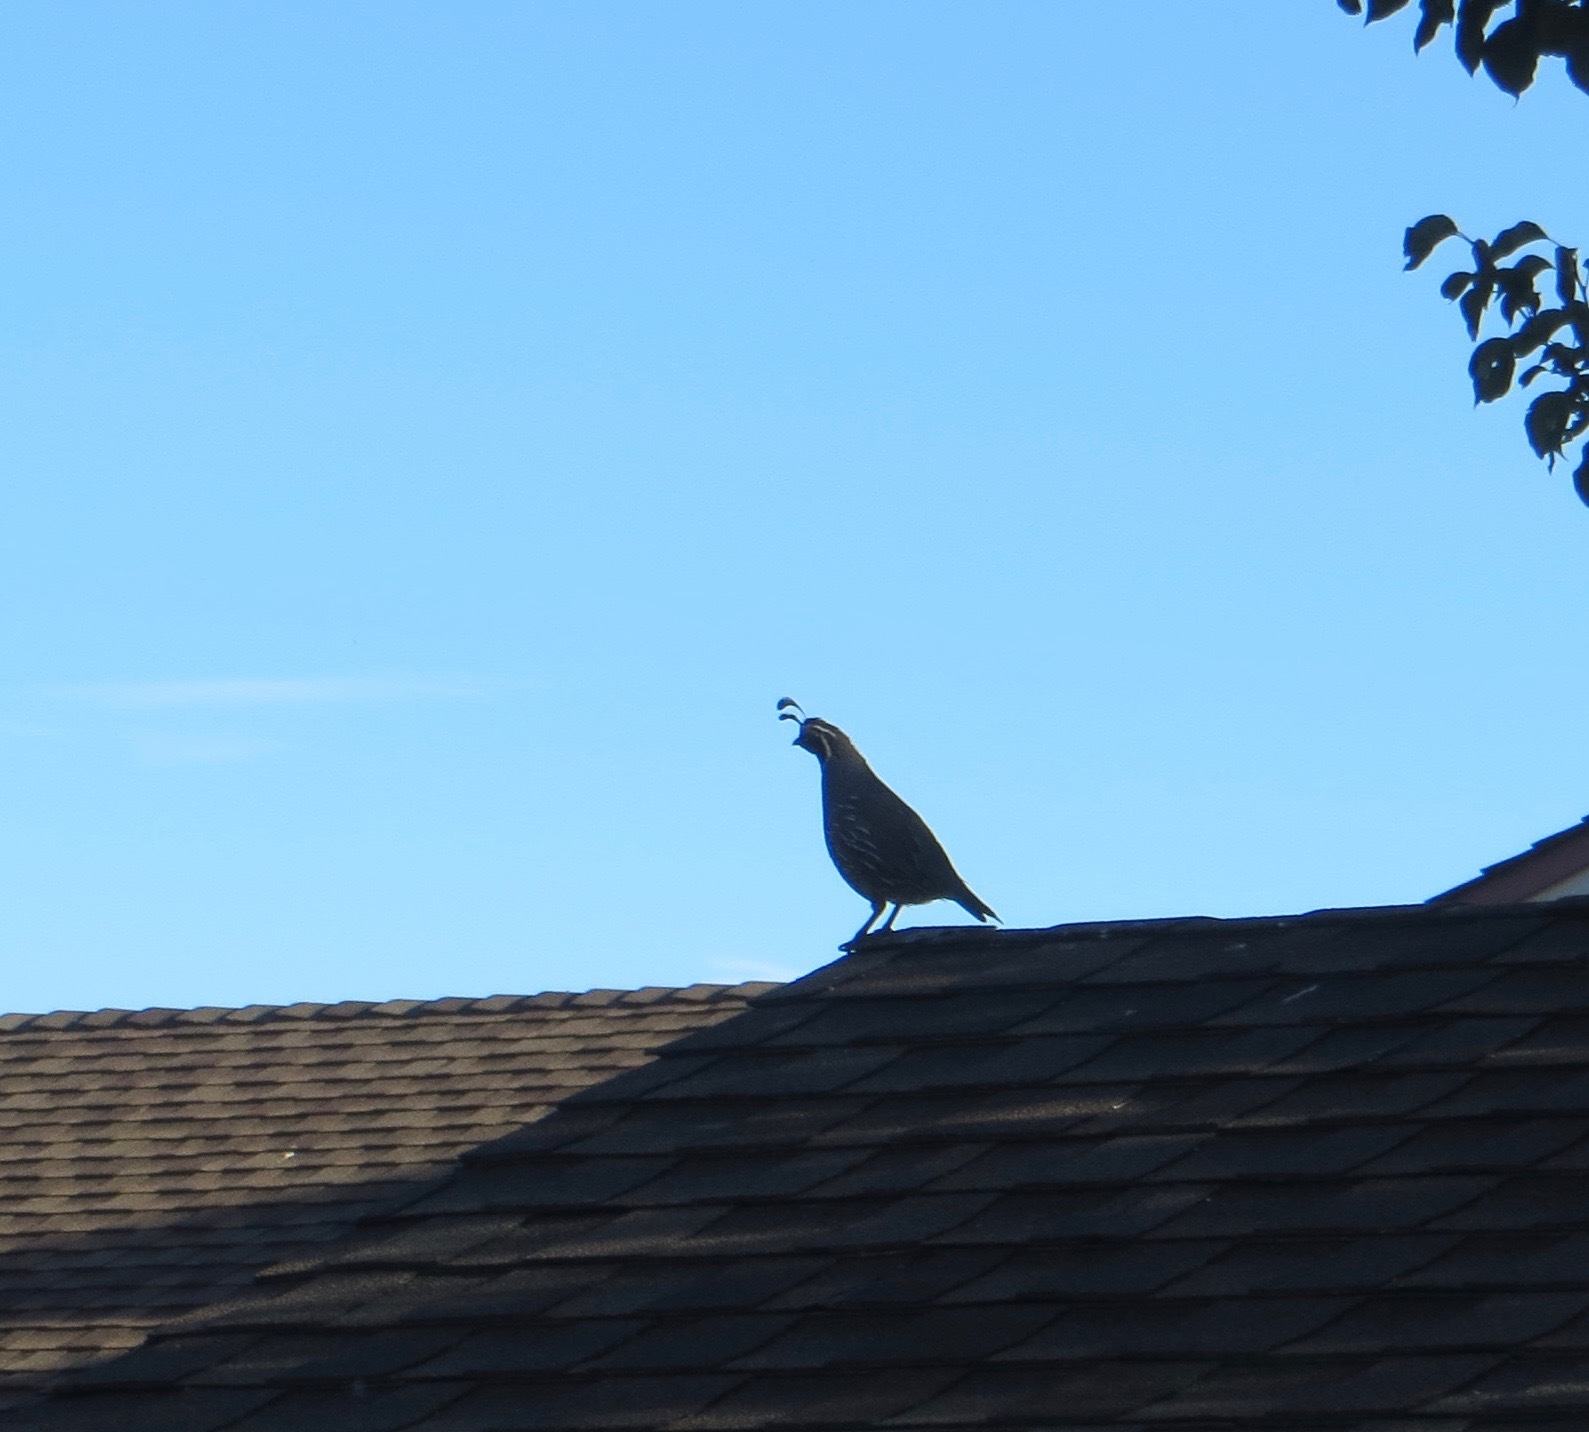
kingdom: Animalia
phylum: Chordata
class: Aves
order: Galliformes
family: Odontophoridae
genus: Callipepla
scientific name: Callipepla californica
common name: California quail
